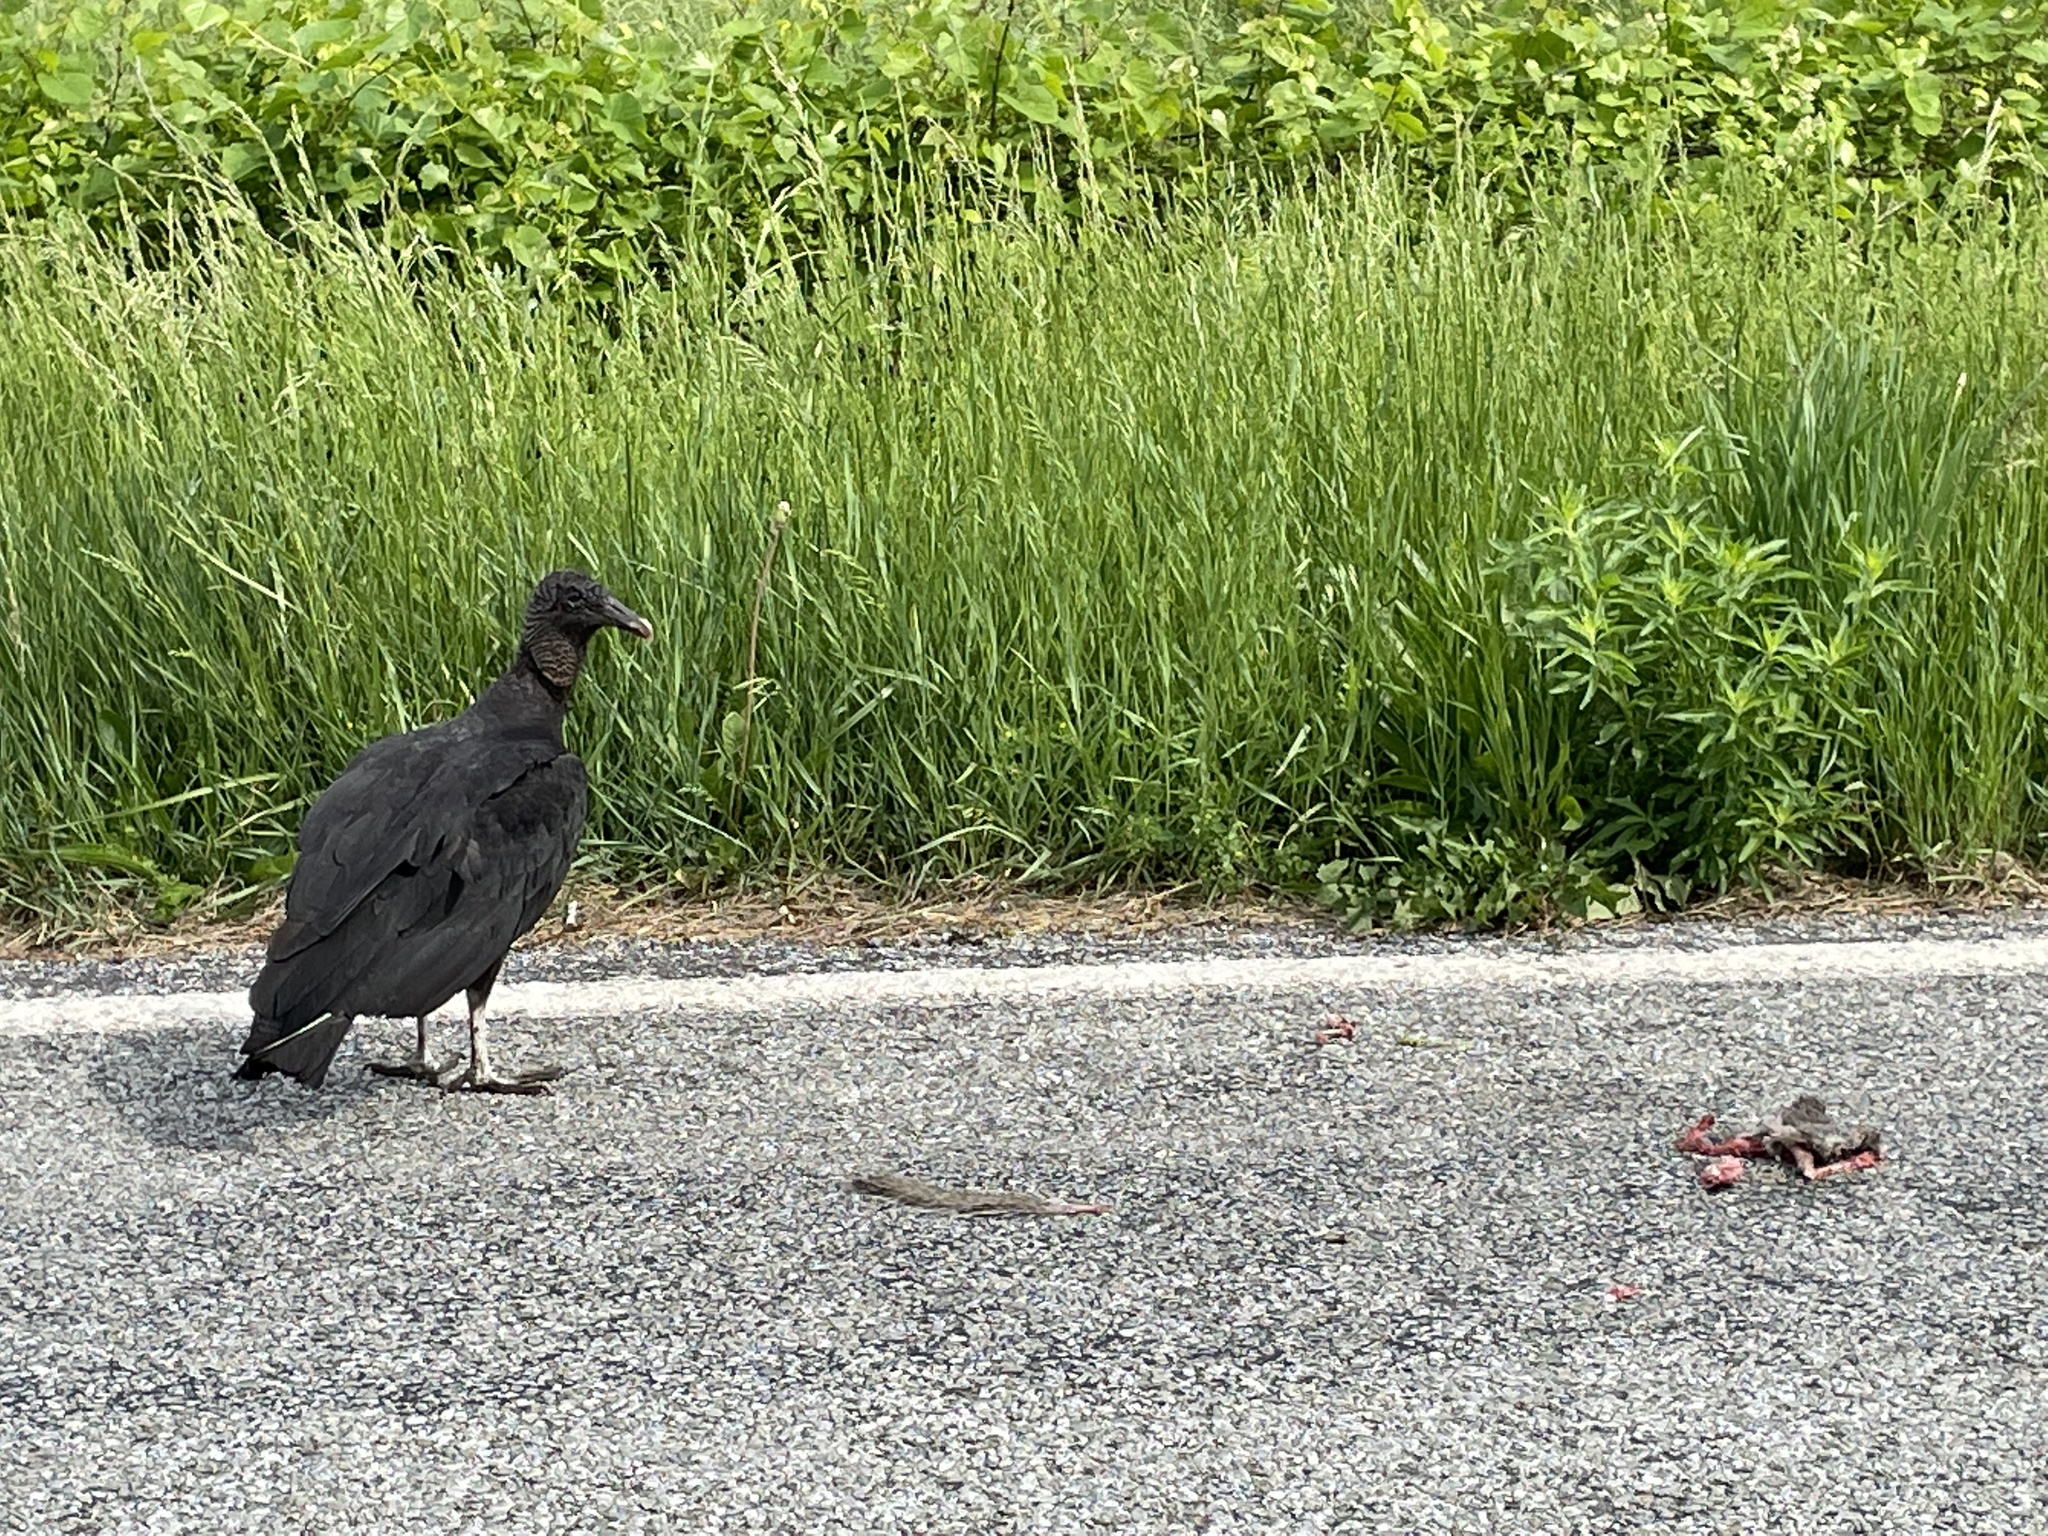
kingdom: Animalia
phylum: Chordata
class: Aves
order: Accipitriformes
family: Cathartidae
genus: Coragyps
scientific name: Coragyps atratus
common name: Black vulture
